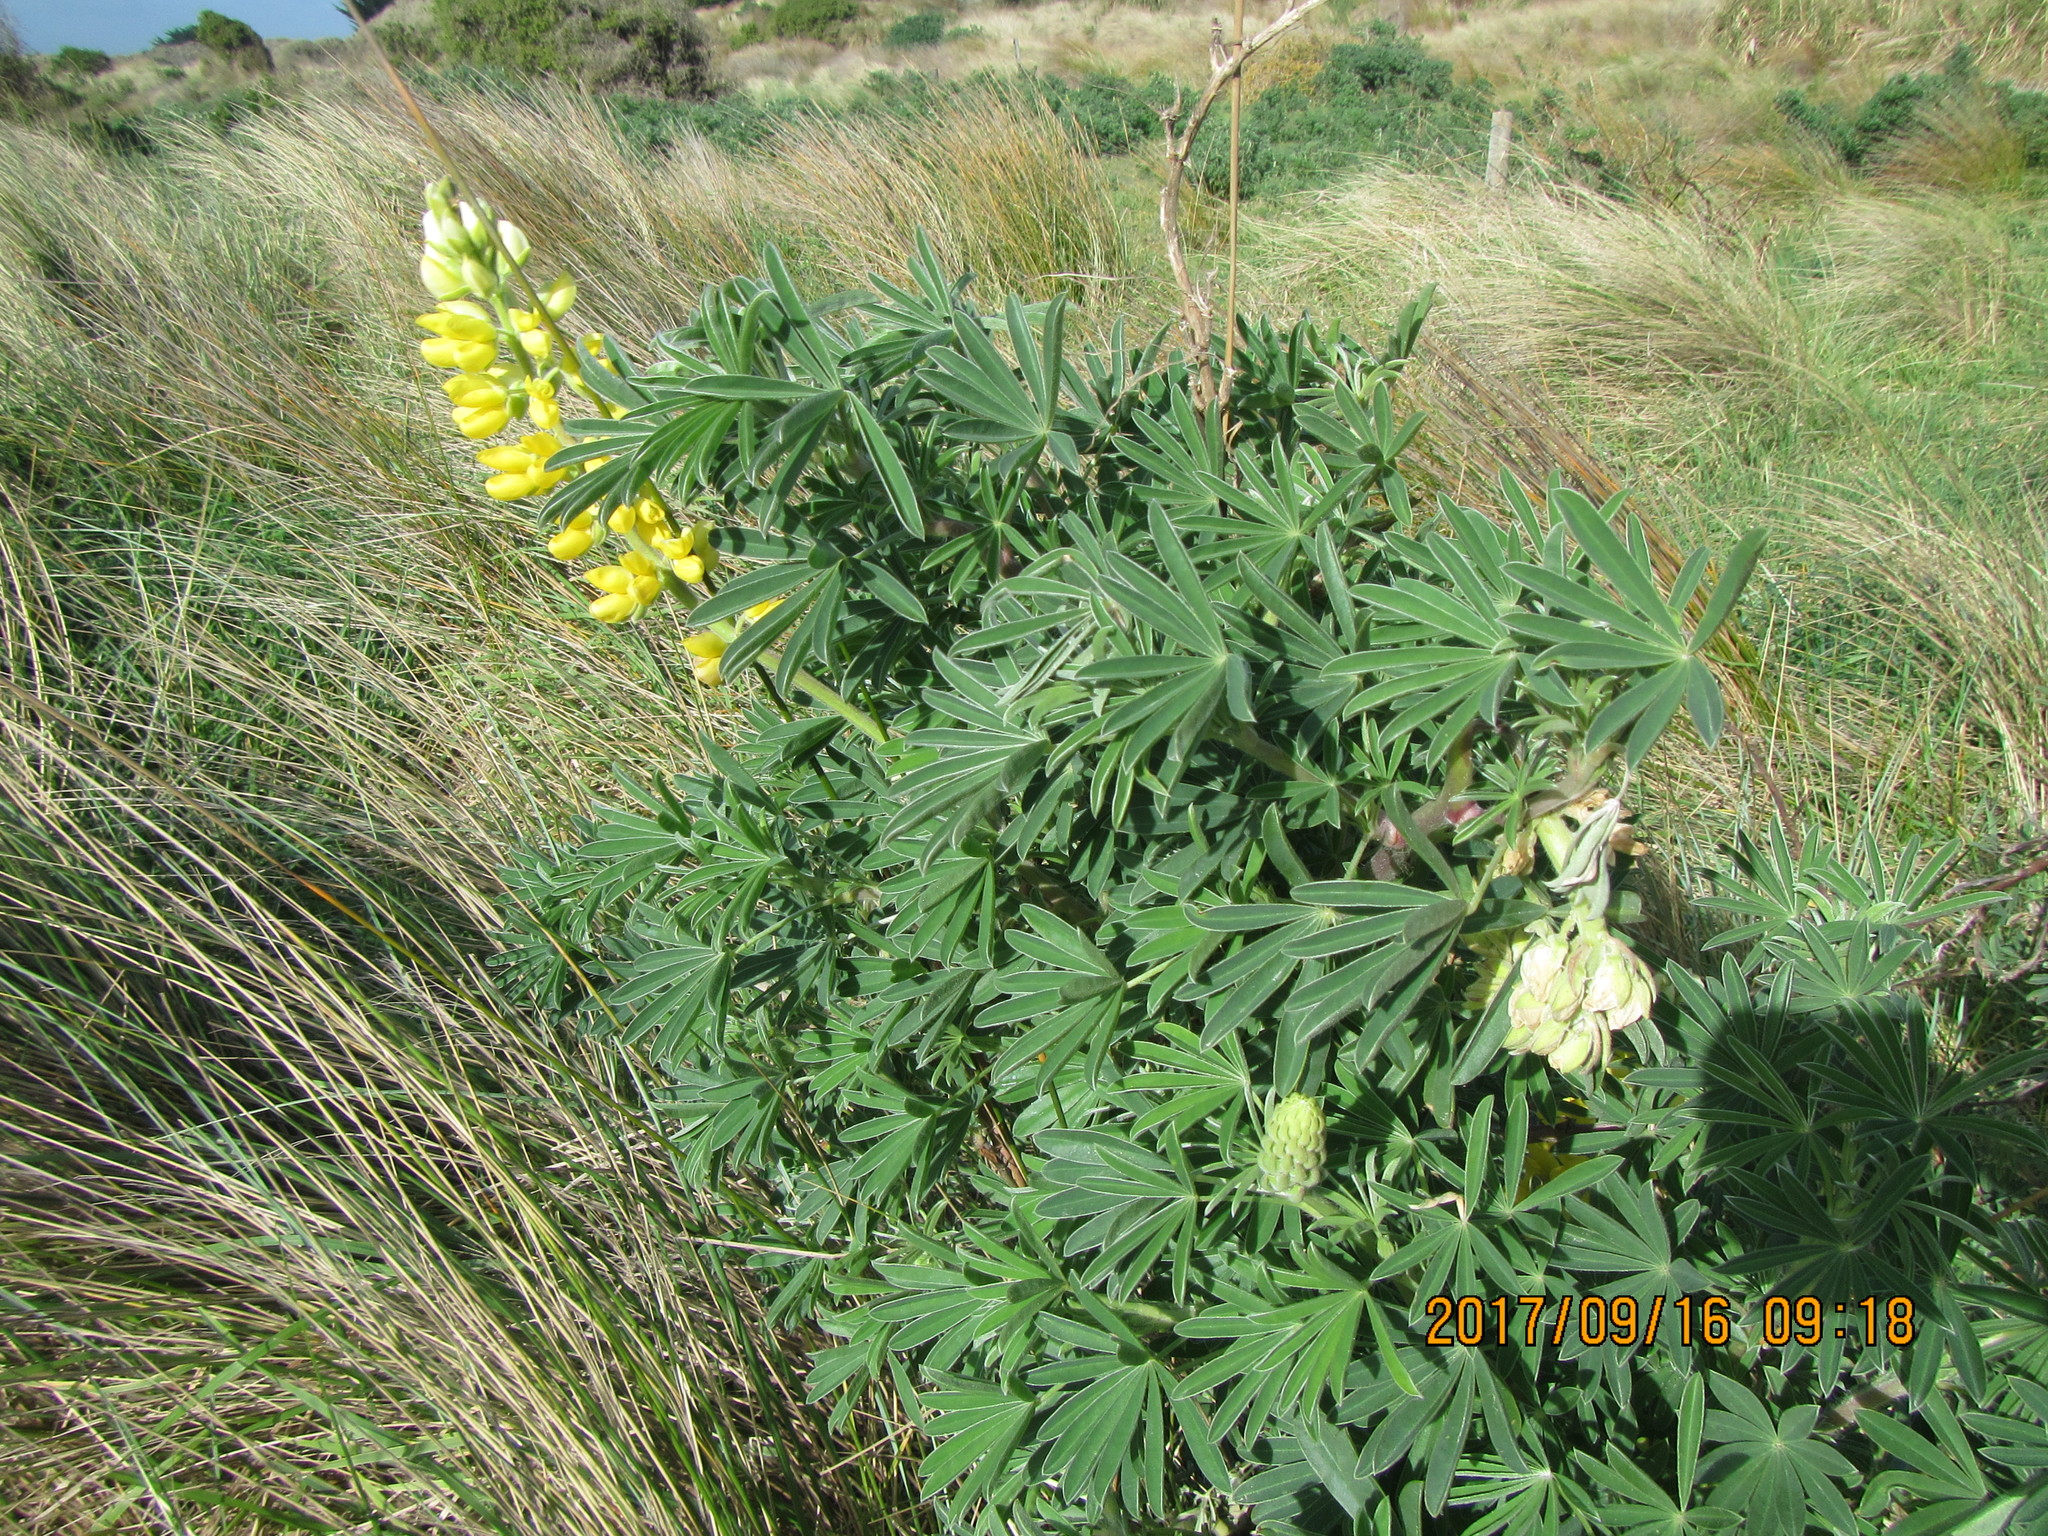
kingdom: Plantae
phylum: Tracheophyta
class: Magnoliopsida
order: Fabales
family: Fabaceae
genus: Lupinus
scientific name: Lupinus arboreus
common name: Yellow bush lupine
